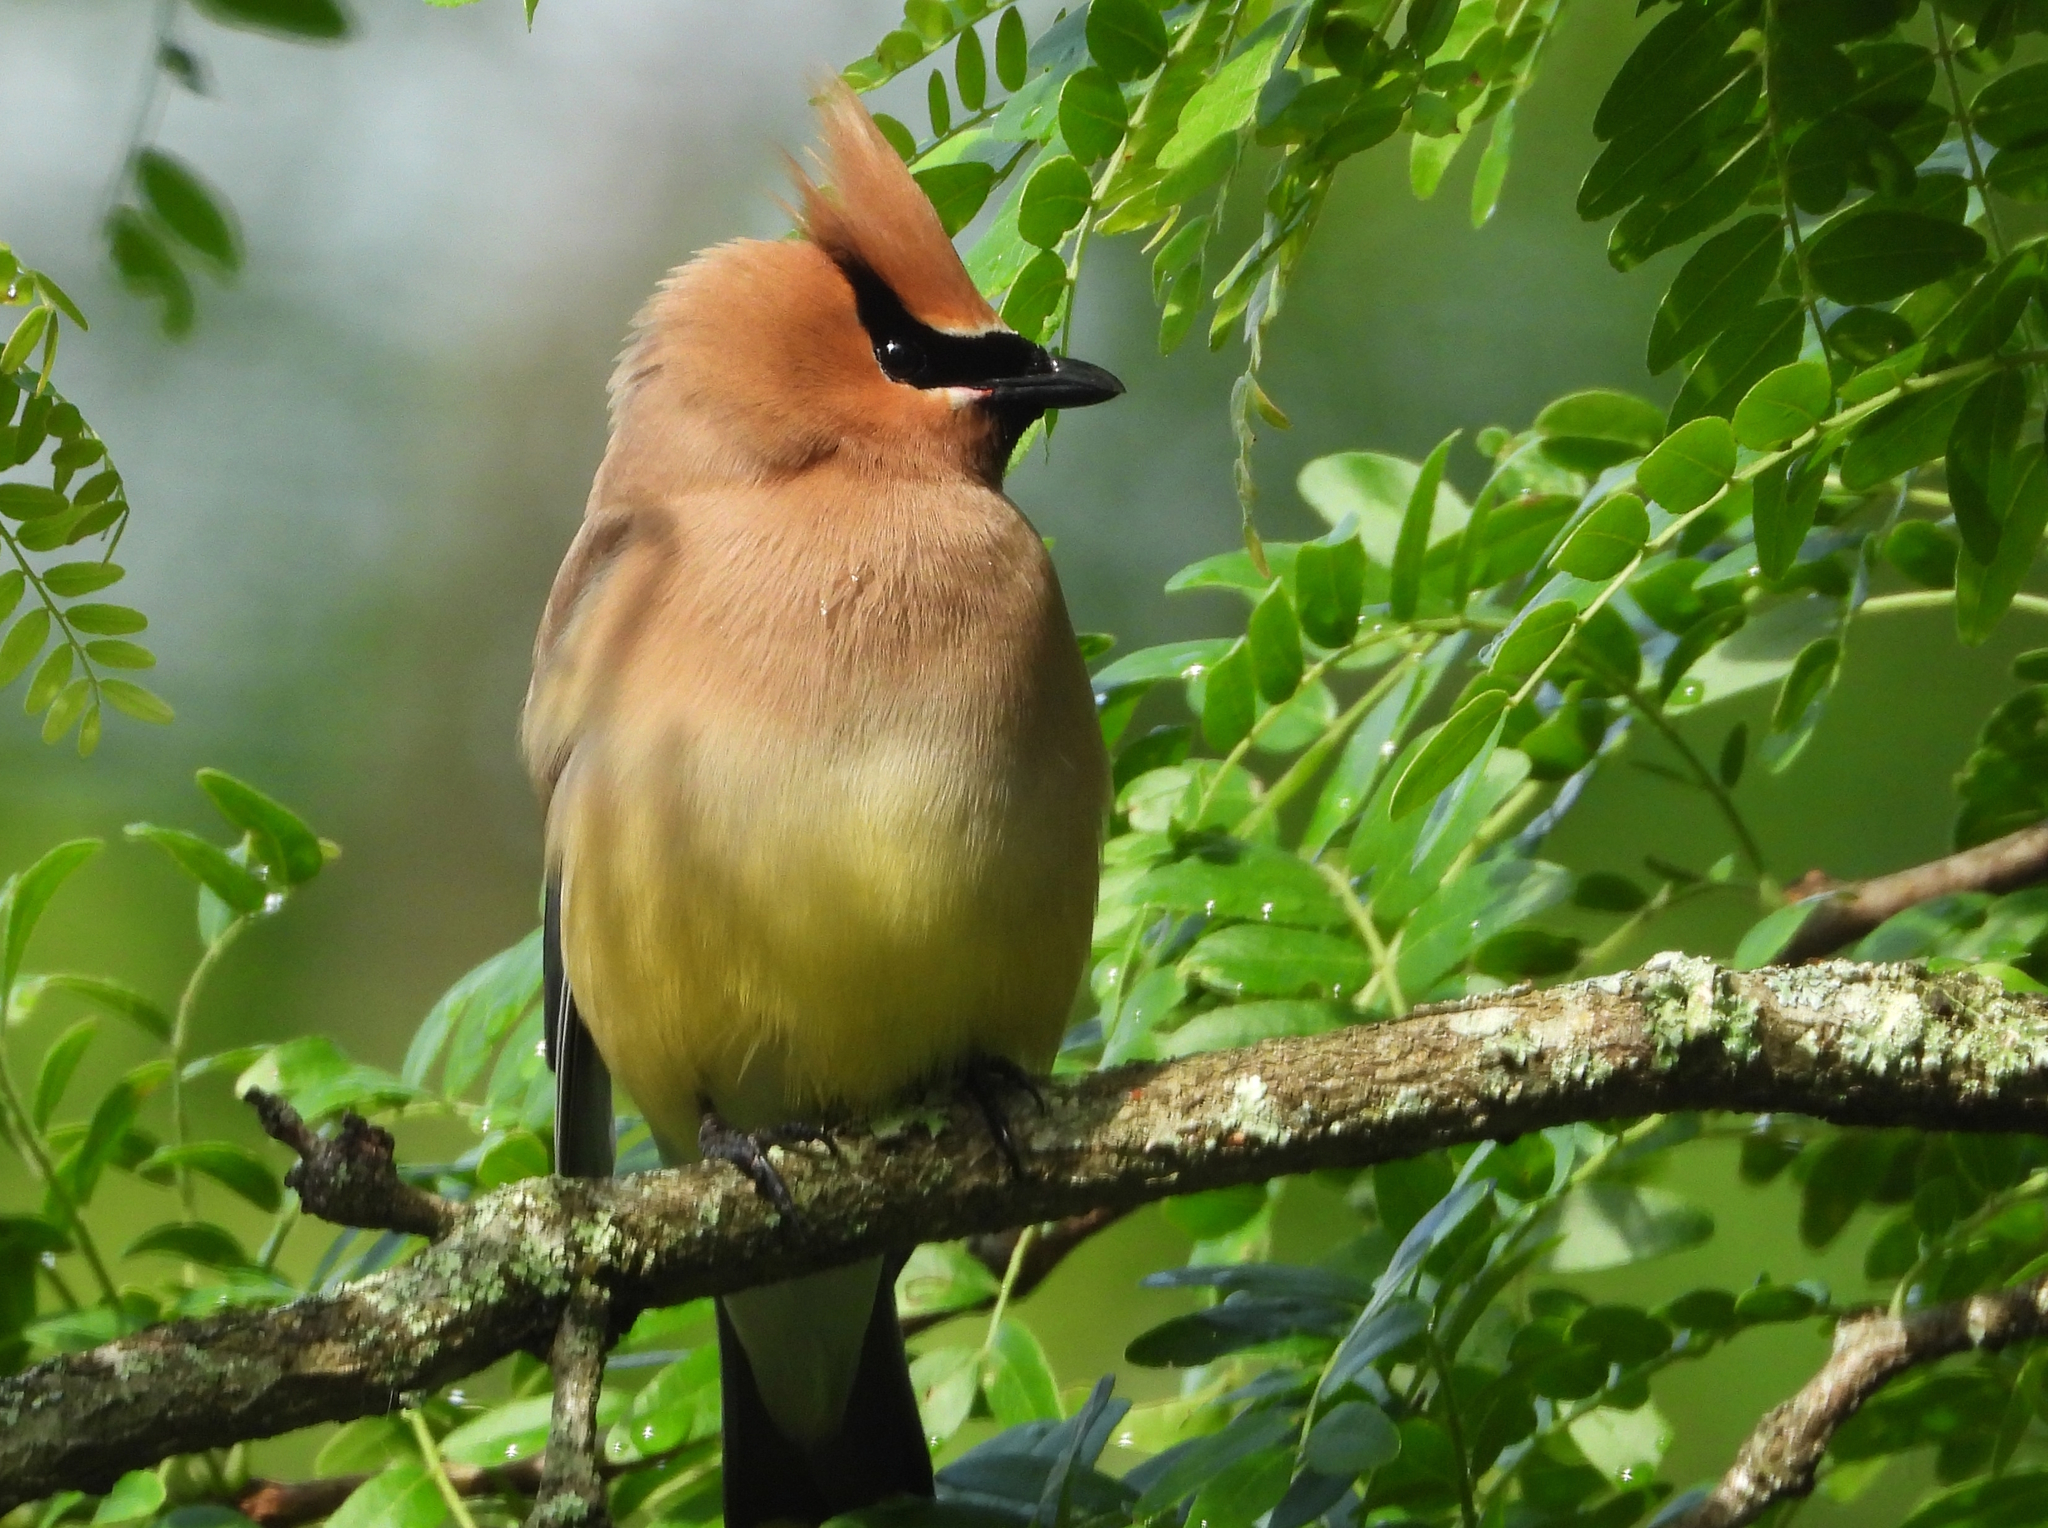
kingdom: Animalia
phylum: Chordata
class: Aves
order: Passeriformes
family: Bombycillidae
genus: Bombycilla
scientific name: Bombycilla cedrorum
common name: Cedar waxwing
